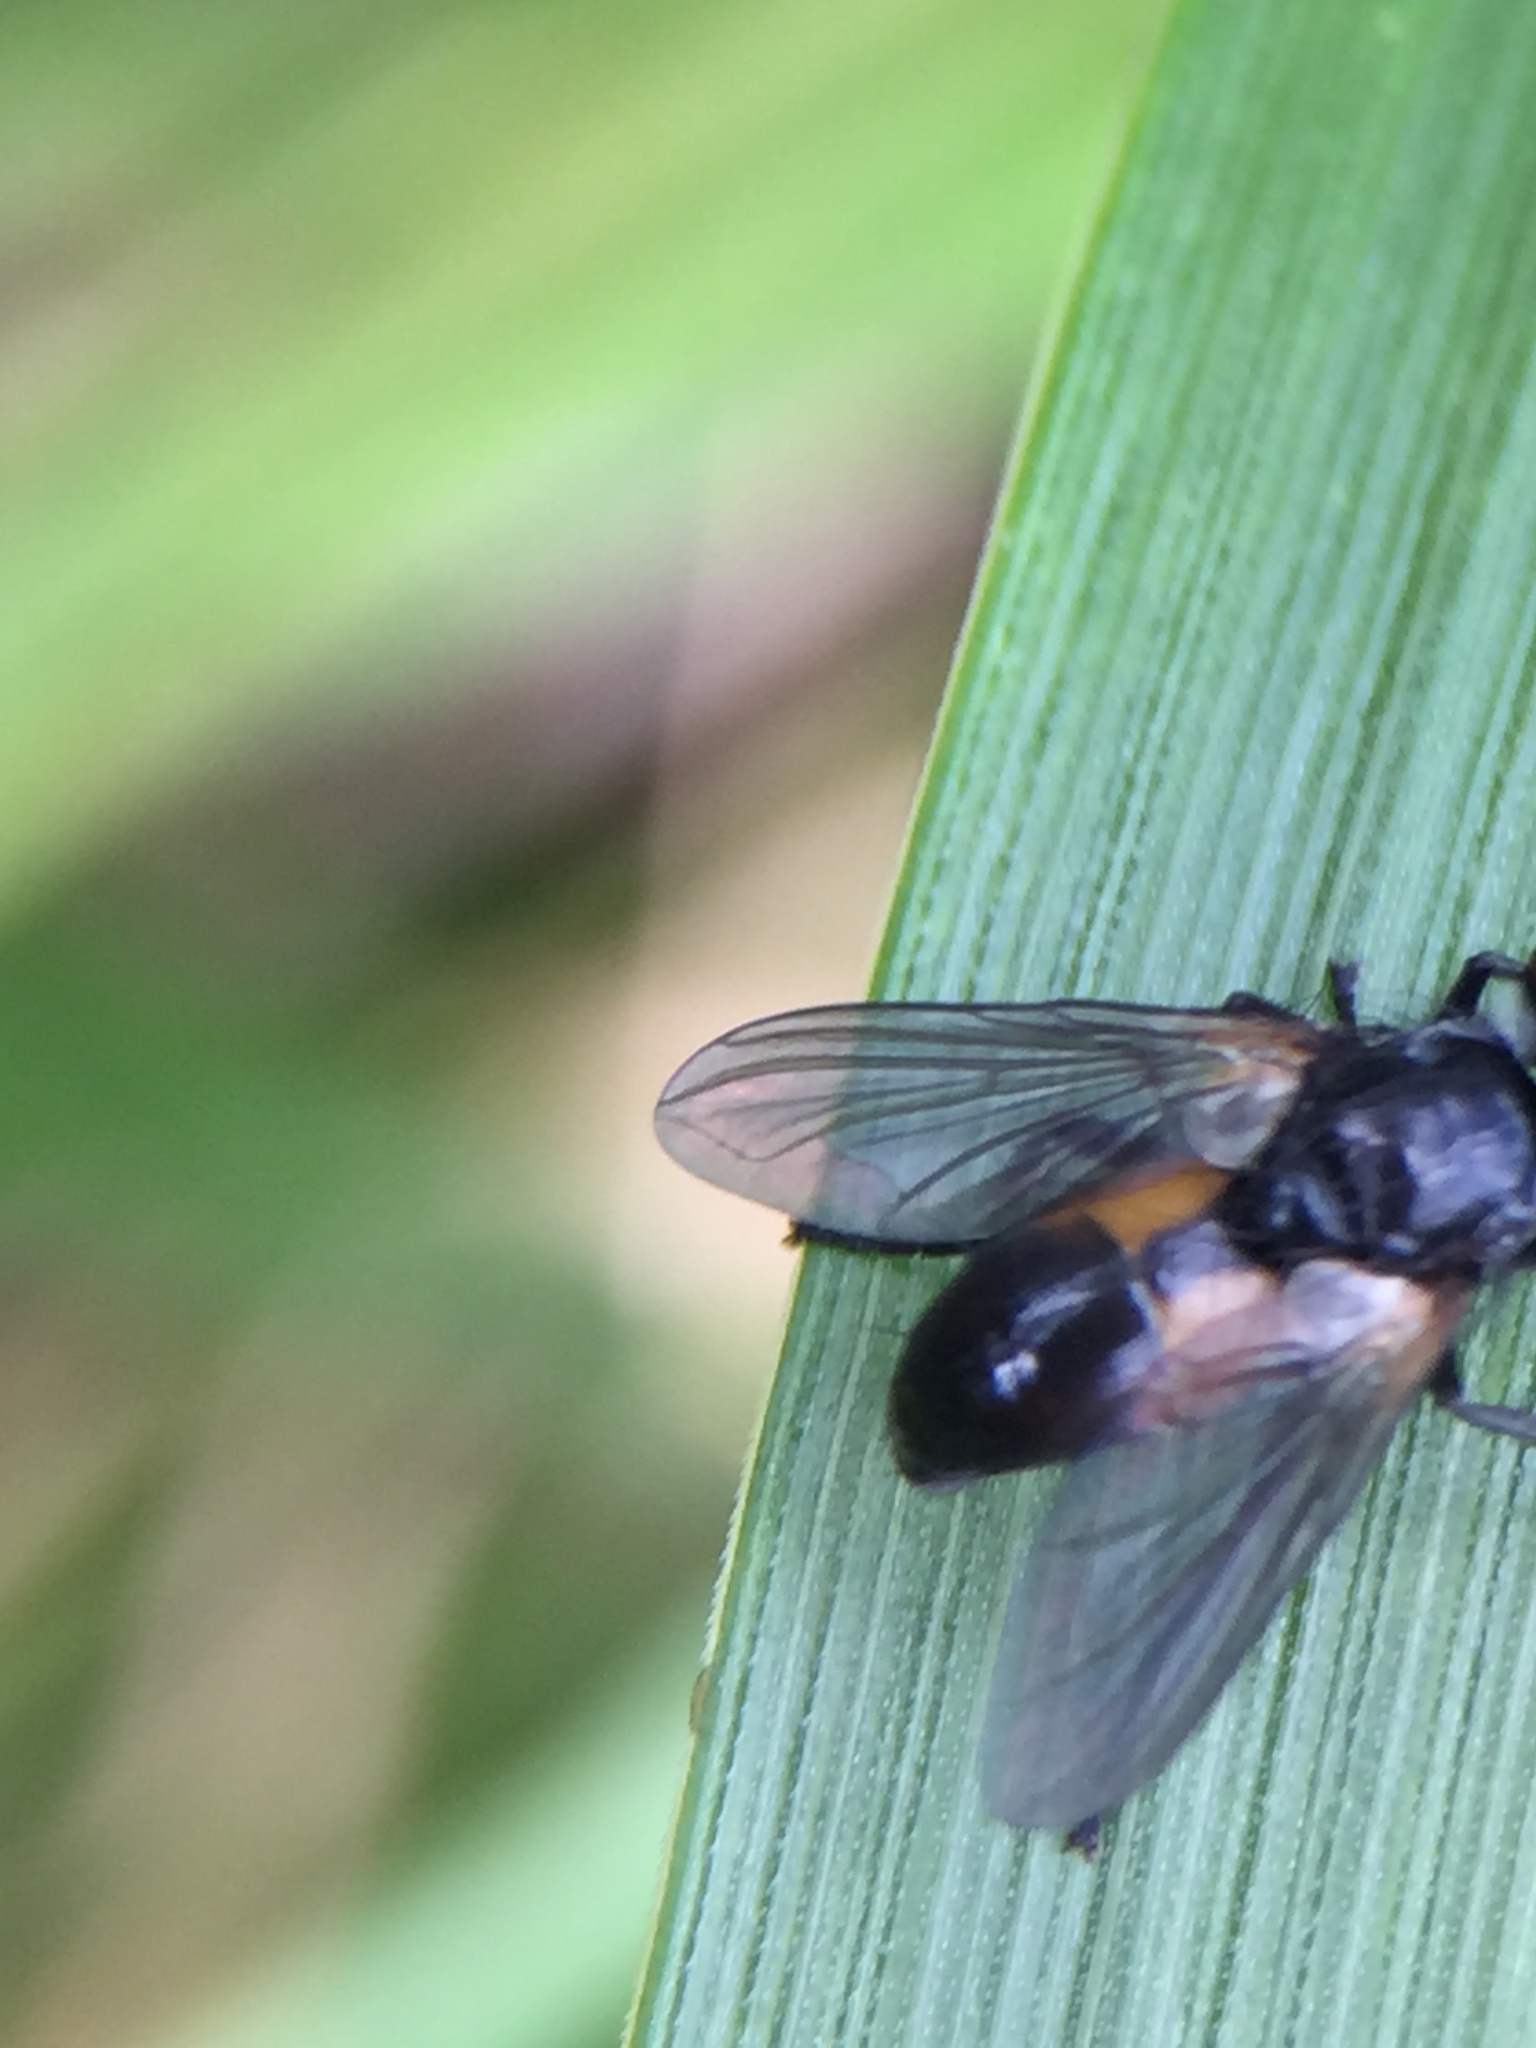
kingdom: Animalia
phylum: Arthropoda
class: Insecta
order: Diptera
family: Tachinidae
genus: Hemyda
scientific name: Hemyda
